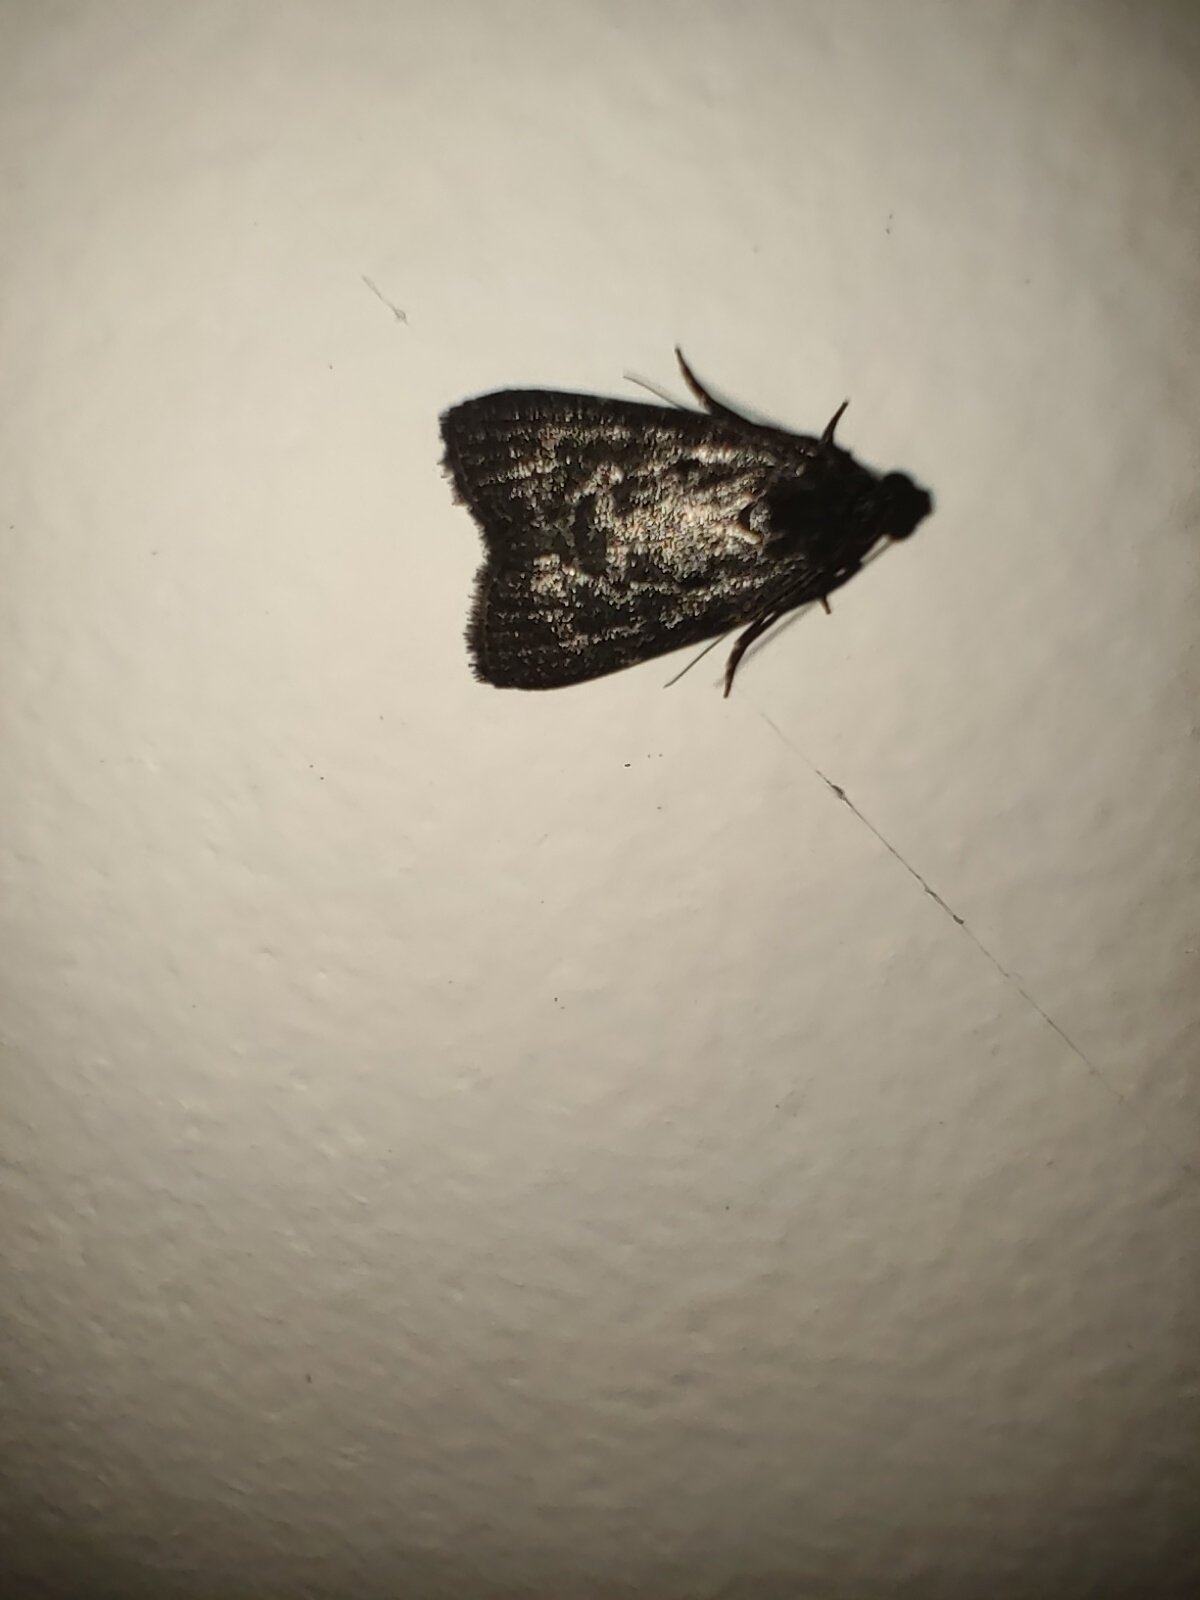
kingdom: Animalia
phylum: Arthropoda
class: Insecta
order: Lepidoptera
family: Pyralidae
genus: Stericta
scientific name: Stericta carbonalis
